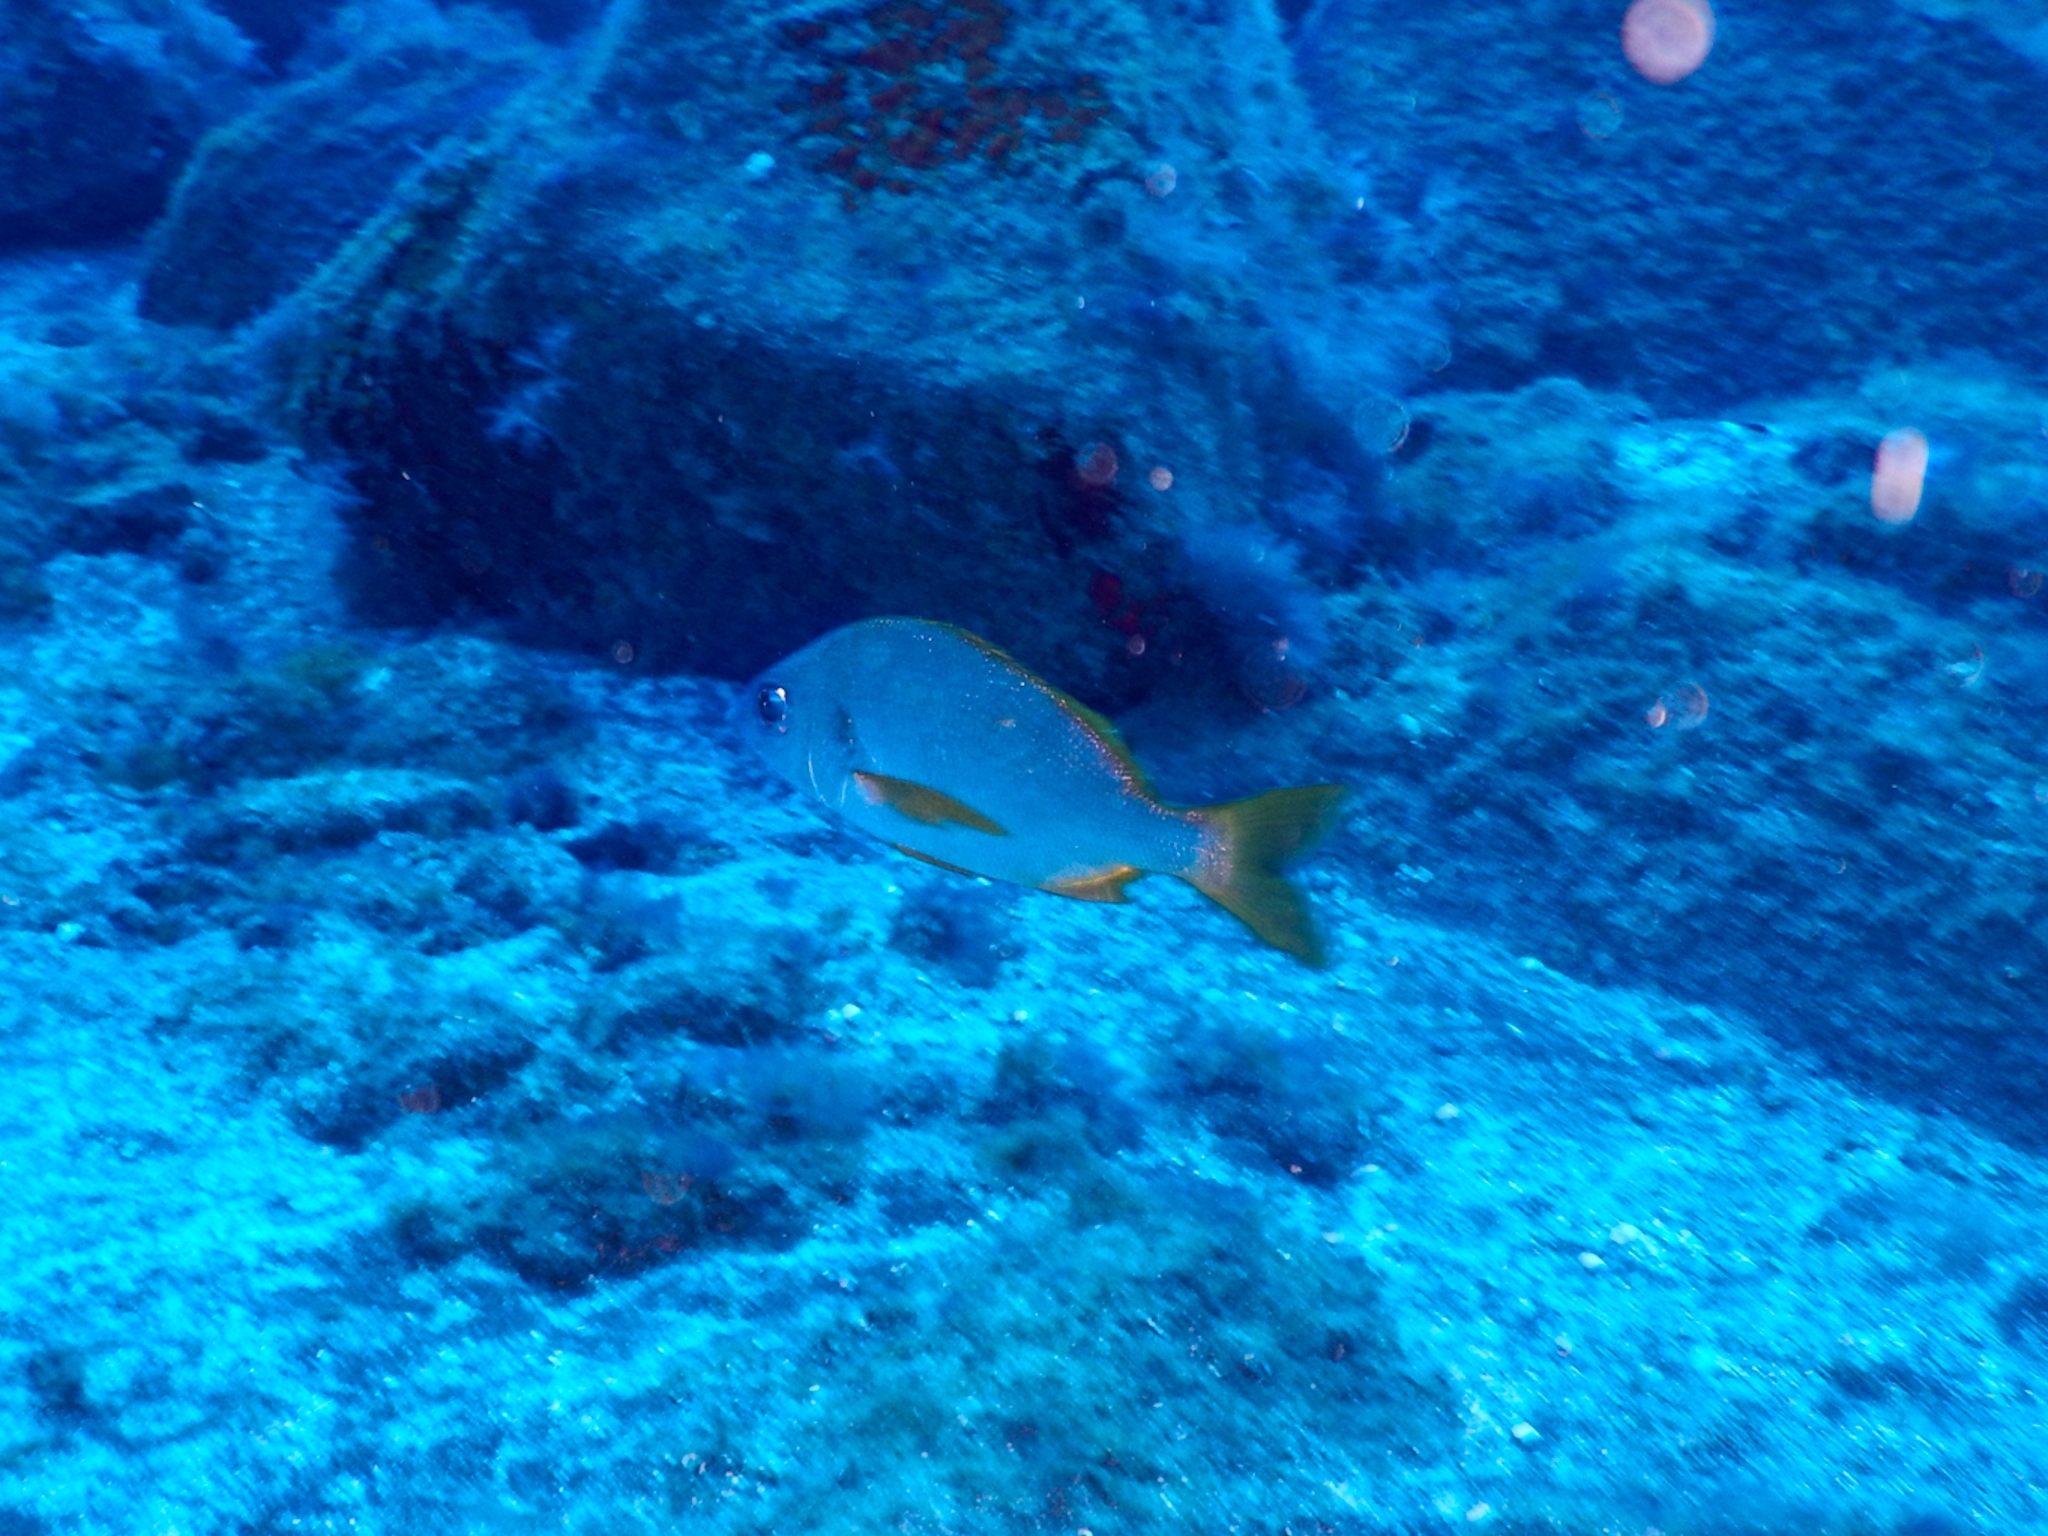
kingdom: Animalia
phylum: Chordata
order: Perciformes
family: Haemulidae
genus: Pomadasys
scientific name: Pomadasys incisus
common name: Bastard grunt
